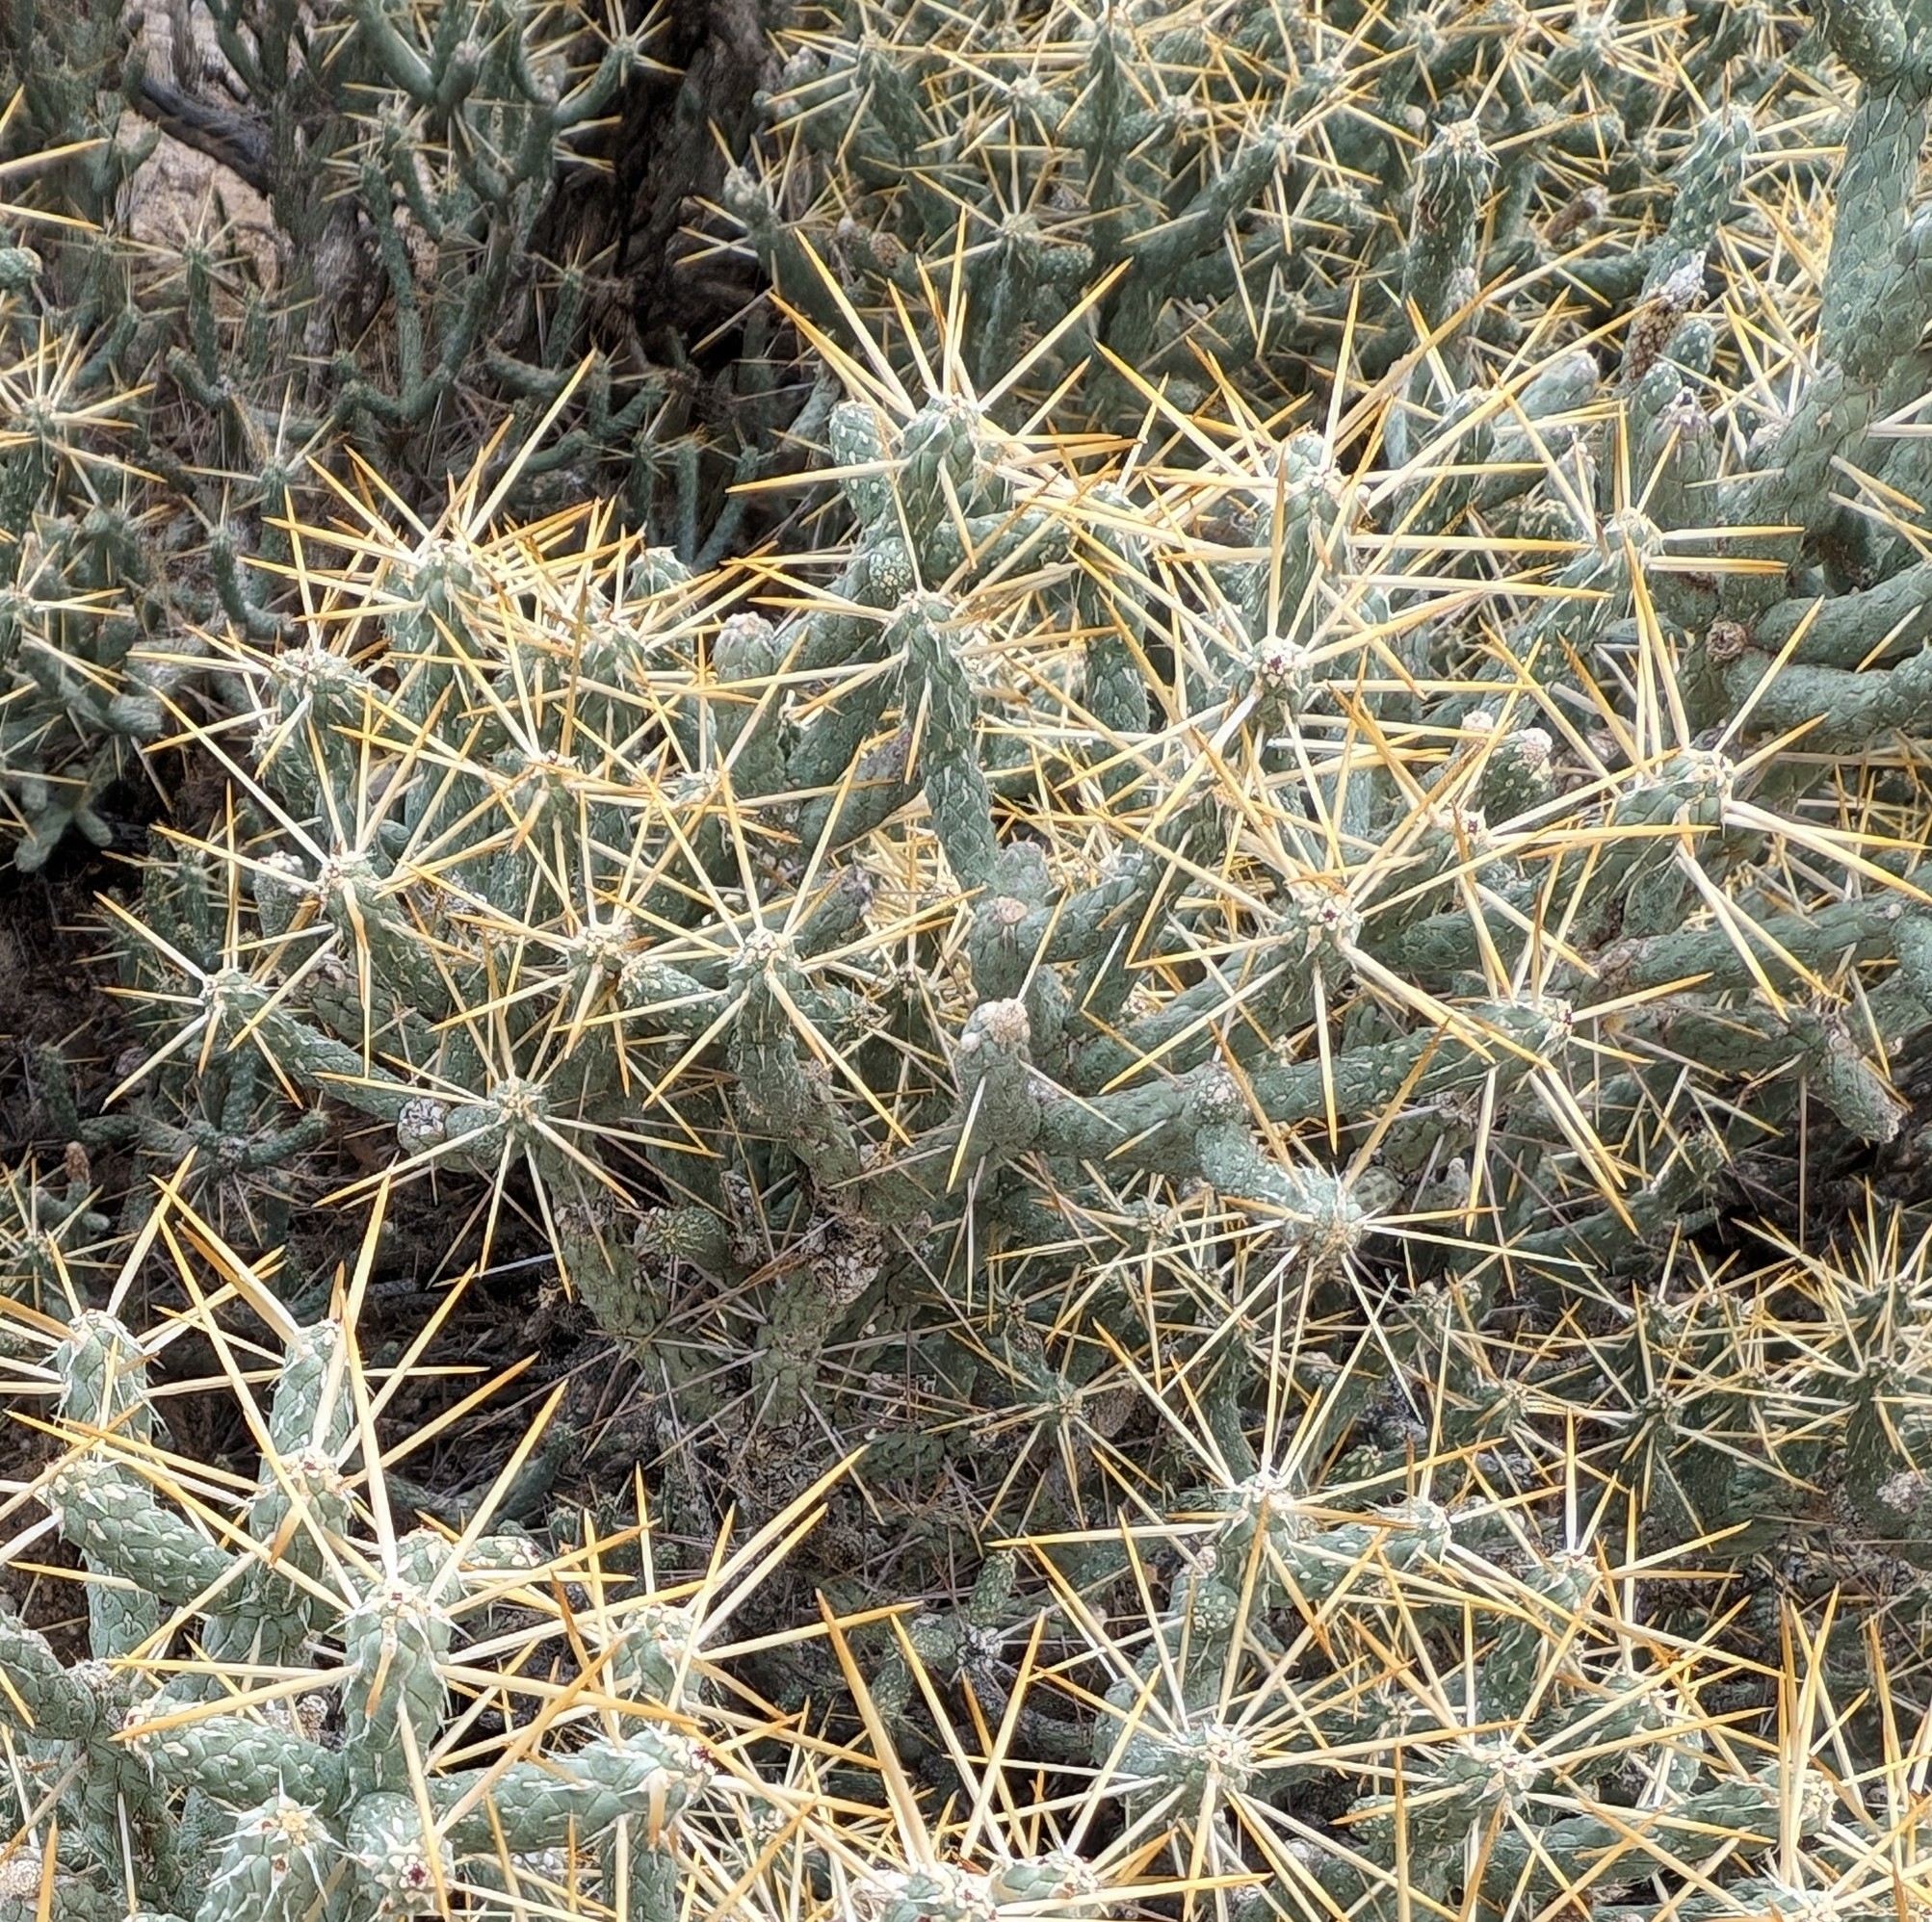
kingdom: Plantae
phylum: Tracheophyta
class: Magnoliopsida
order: Caryophyllales
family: Cactaceae
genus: Cylindropuntia
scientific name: Cylindropuntia ramosissima
